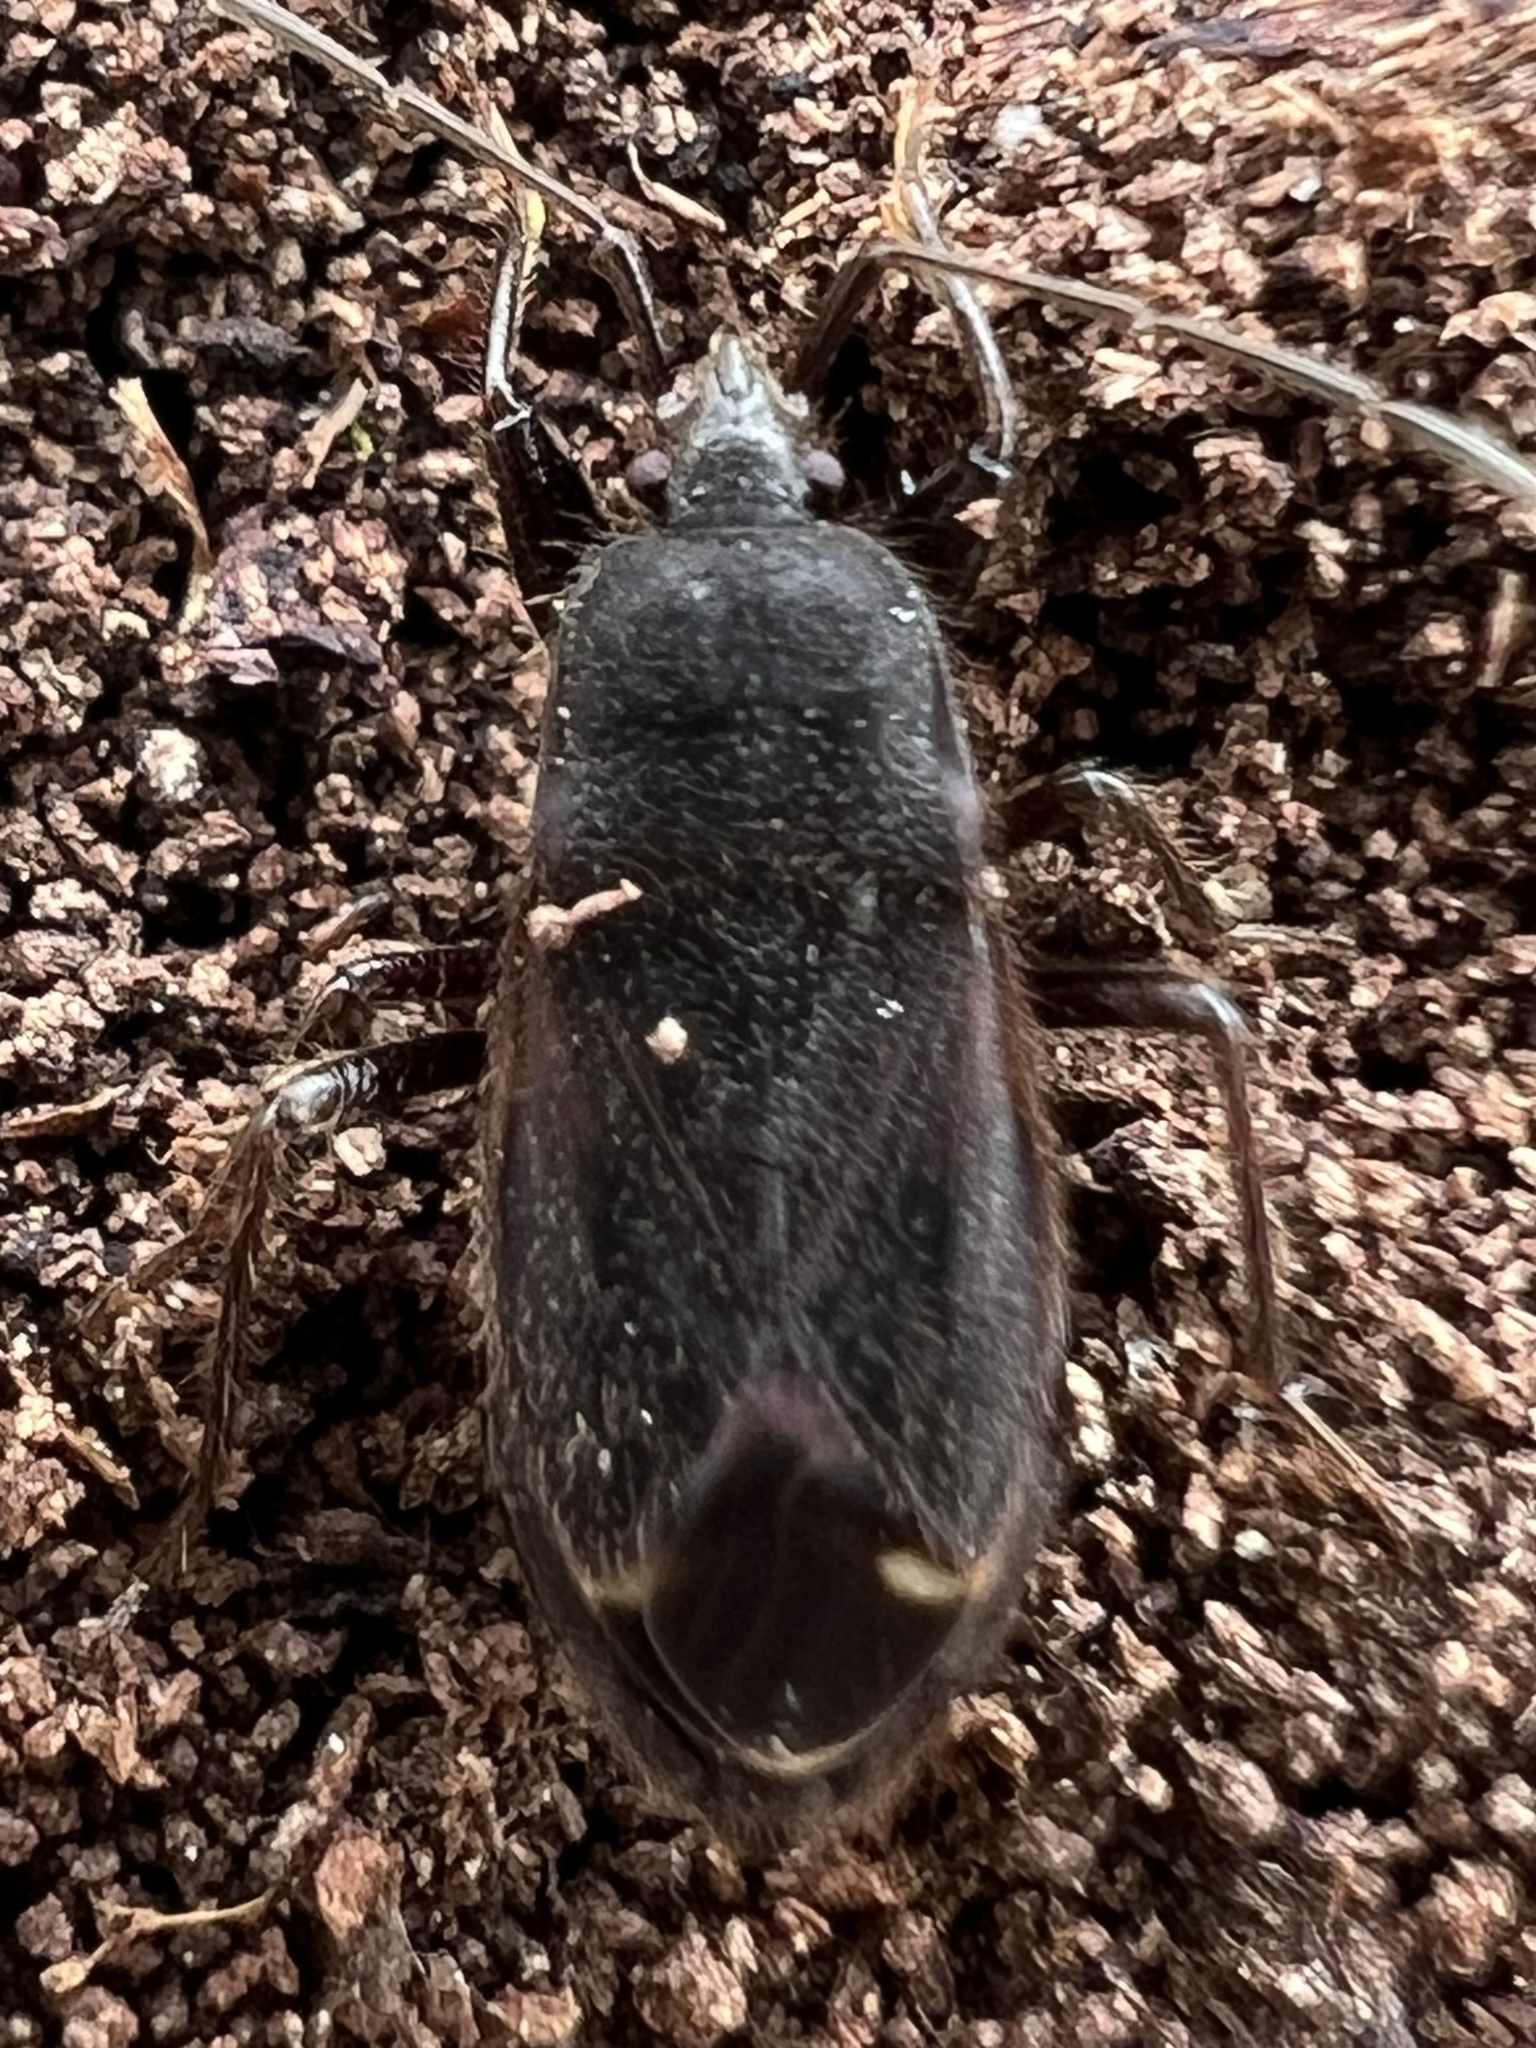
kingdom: Animalia
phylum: Arthropoda
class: Insecta
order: Hemiptera
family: Rhyparochromidae
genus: Eremocoris
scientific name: Eremocoris setosus
